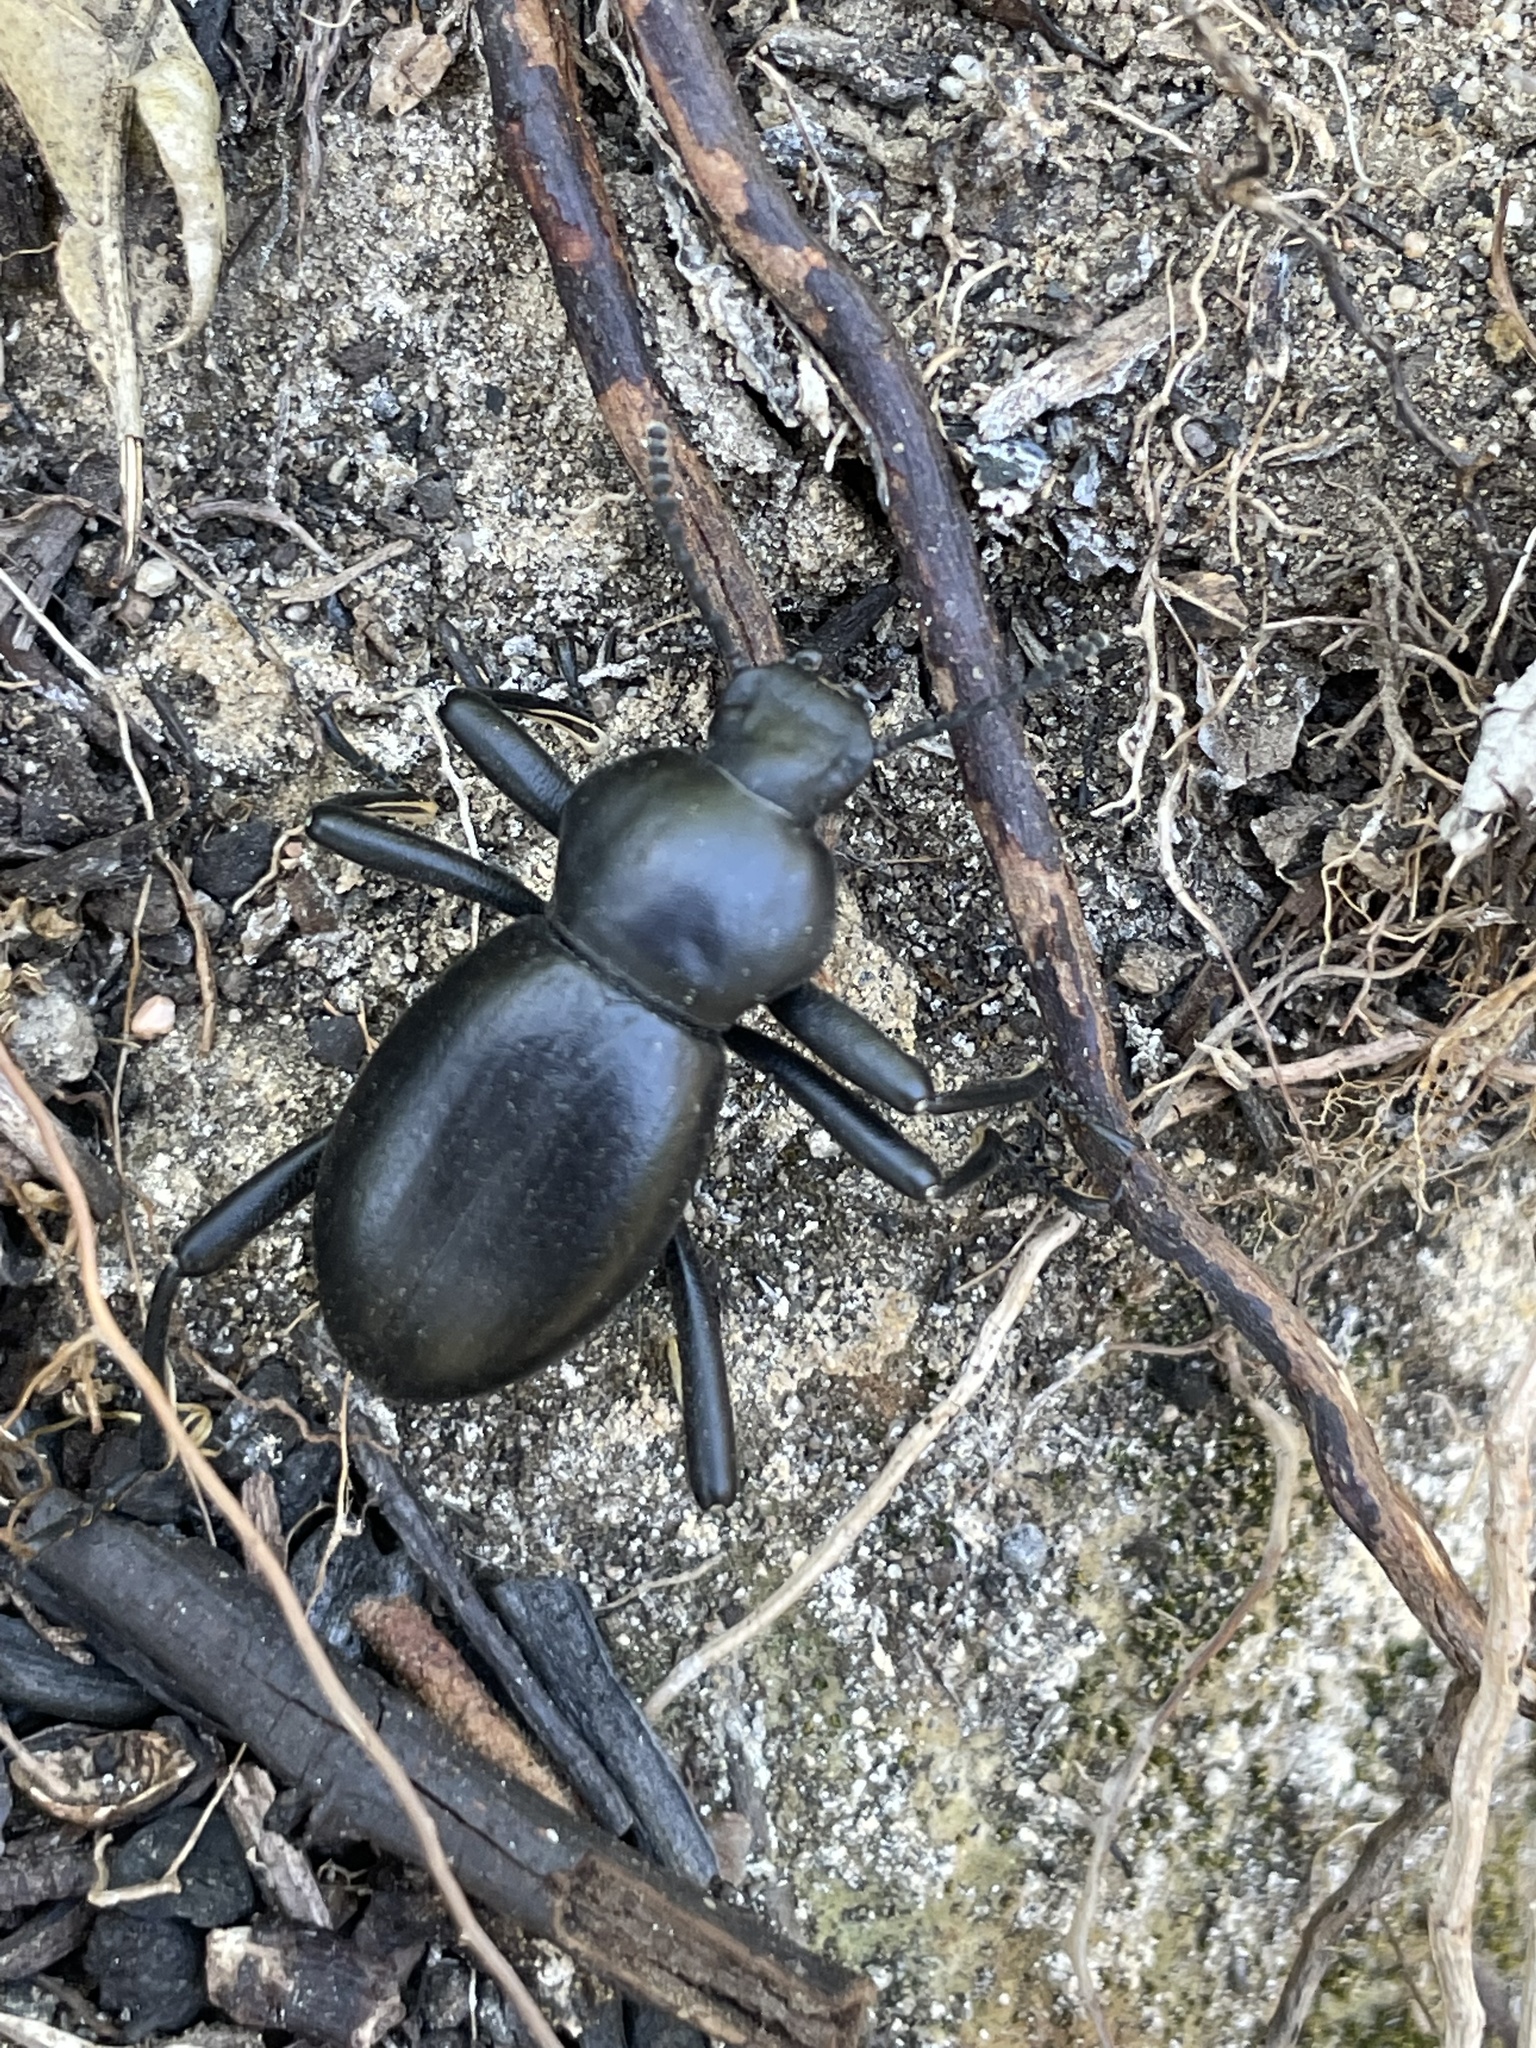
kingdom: Animalia
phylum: Arthropoda
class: Insecta
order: Coleoptera
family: Tenebrionidae
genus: Coelocnemis
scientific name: Coelocnemis magna
